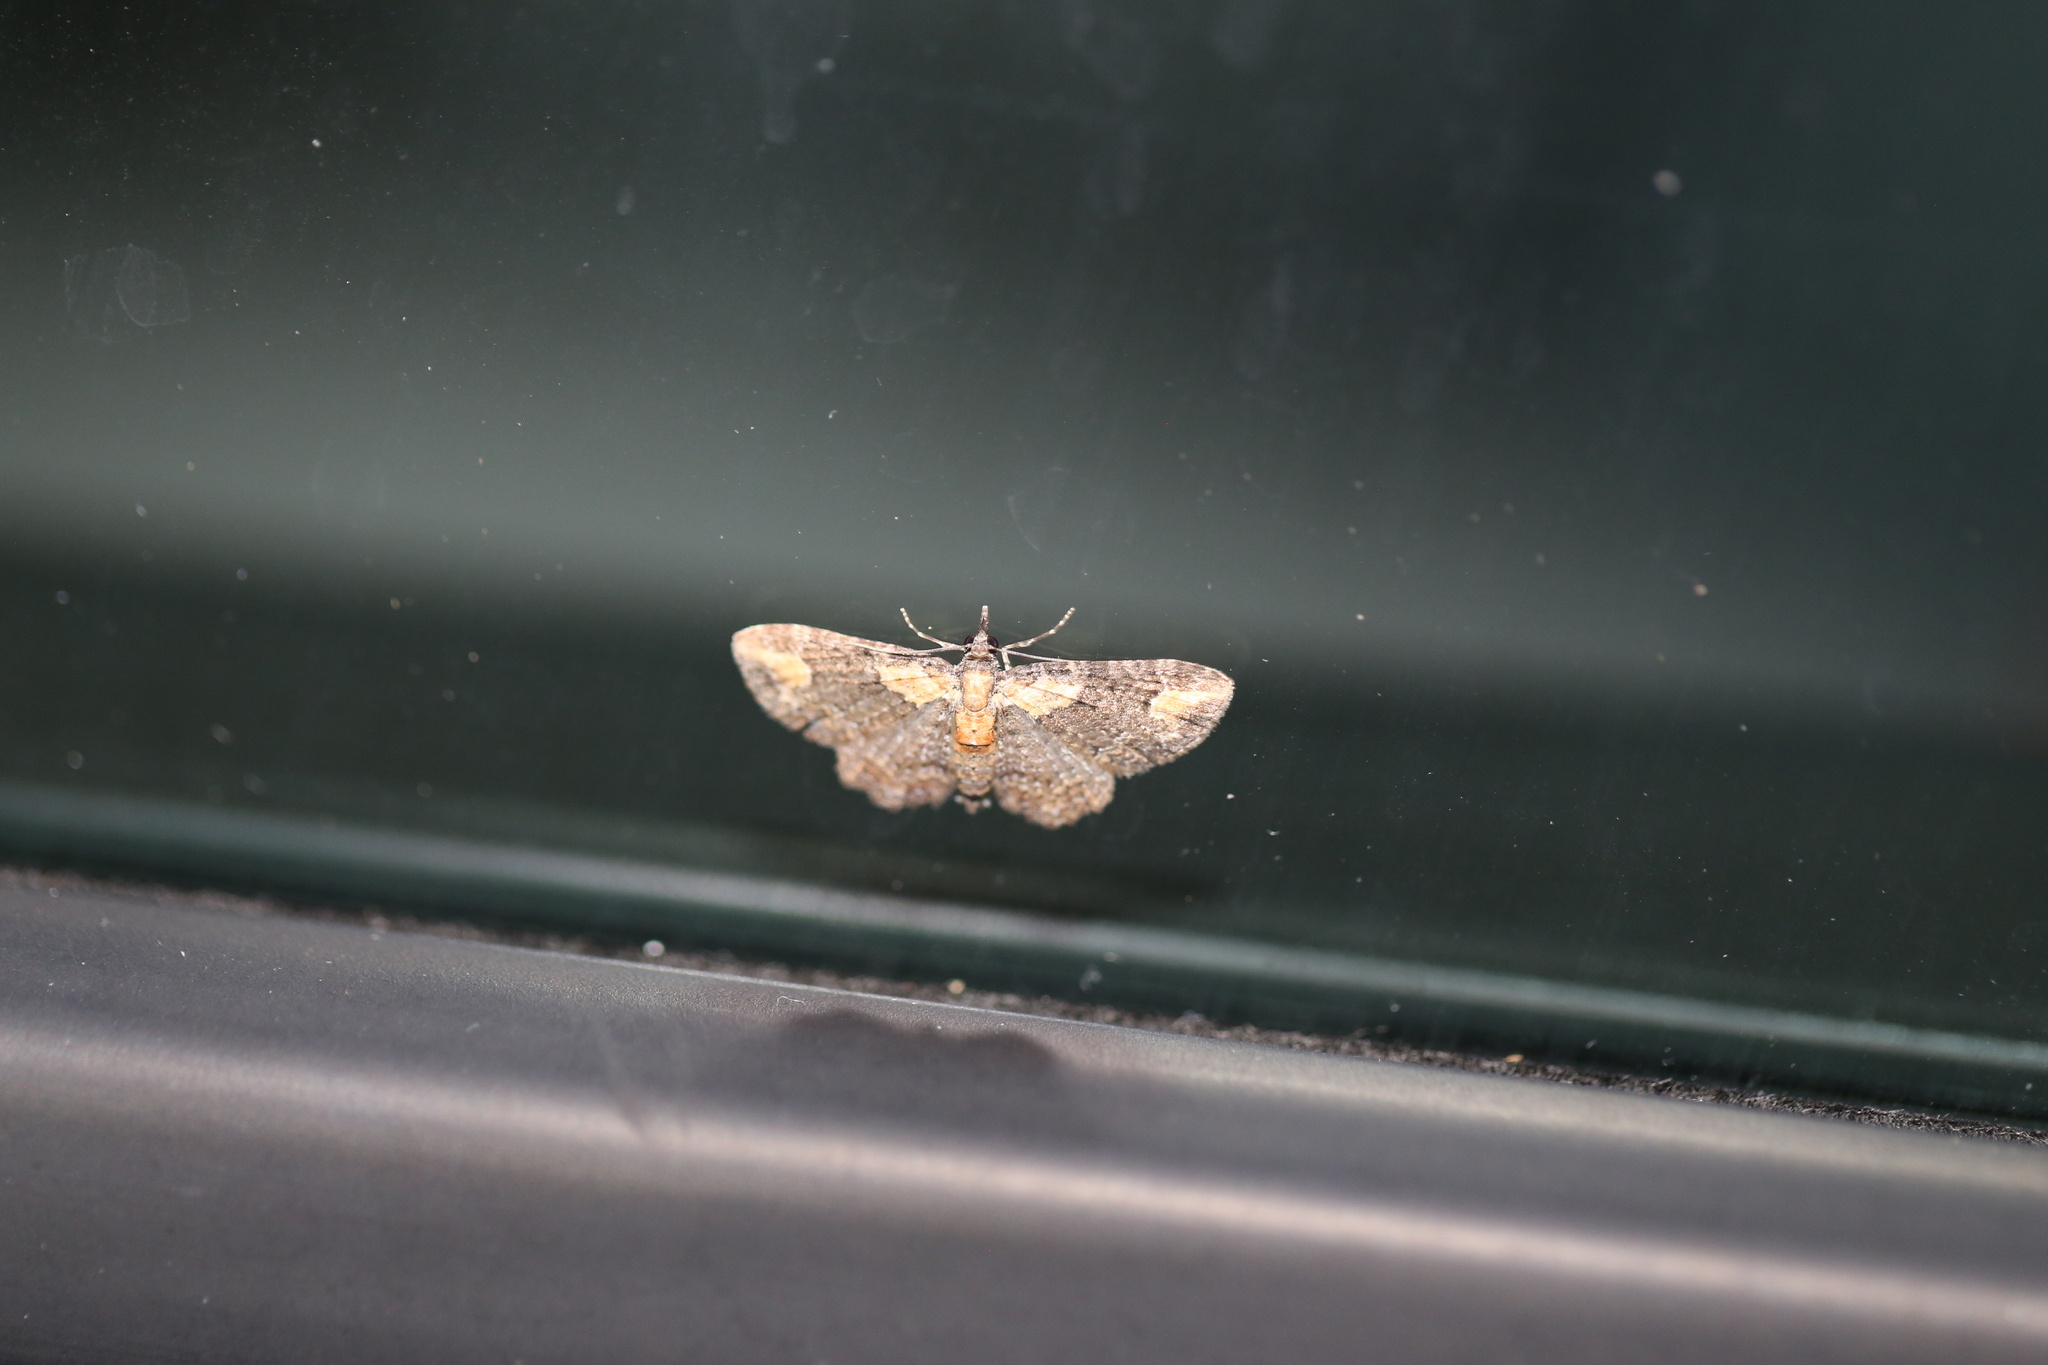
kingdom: Animalia
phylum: Arthropoda
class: Insecta
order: Lepidoptera
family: Geometridae
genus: Pasiphilodes
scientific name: Pasiphilodes testulata
